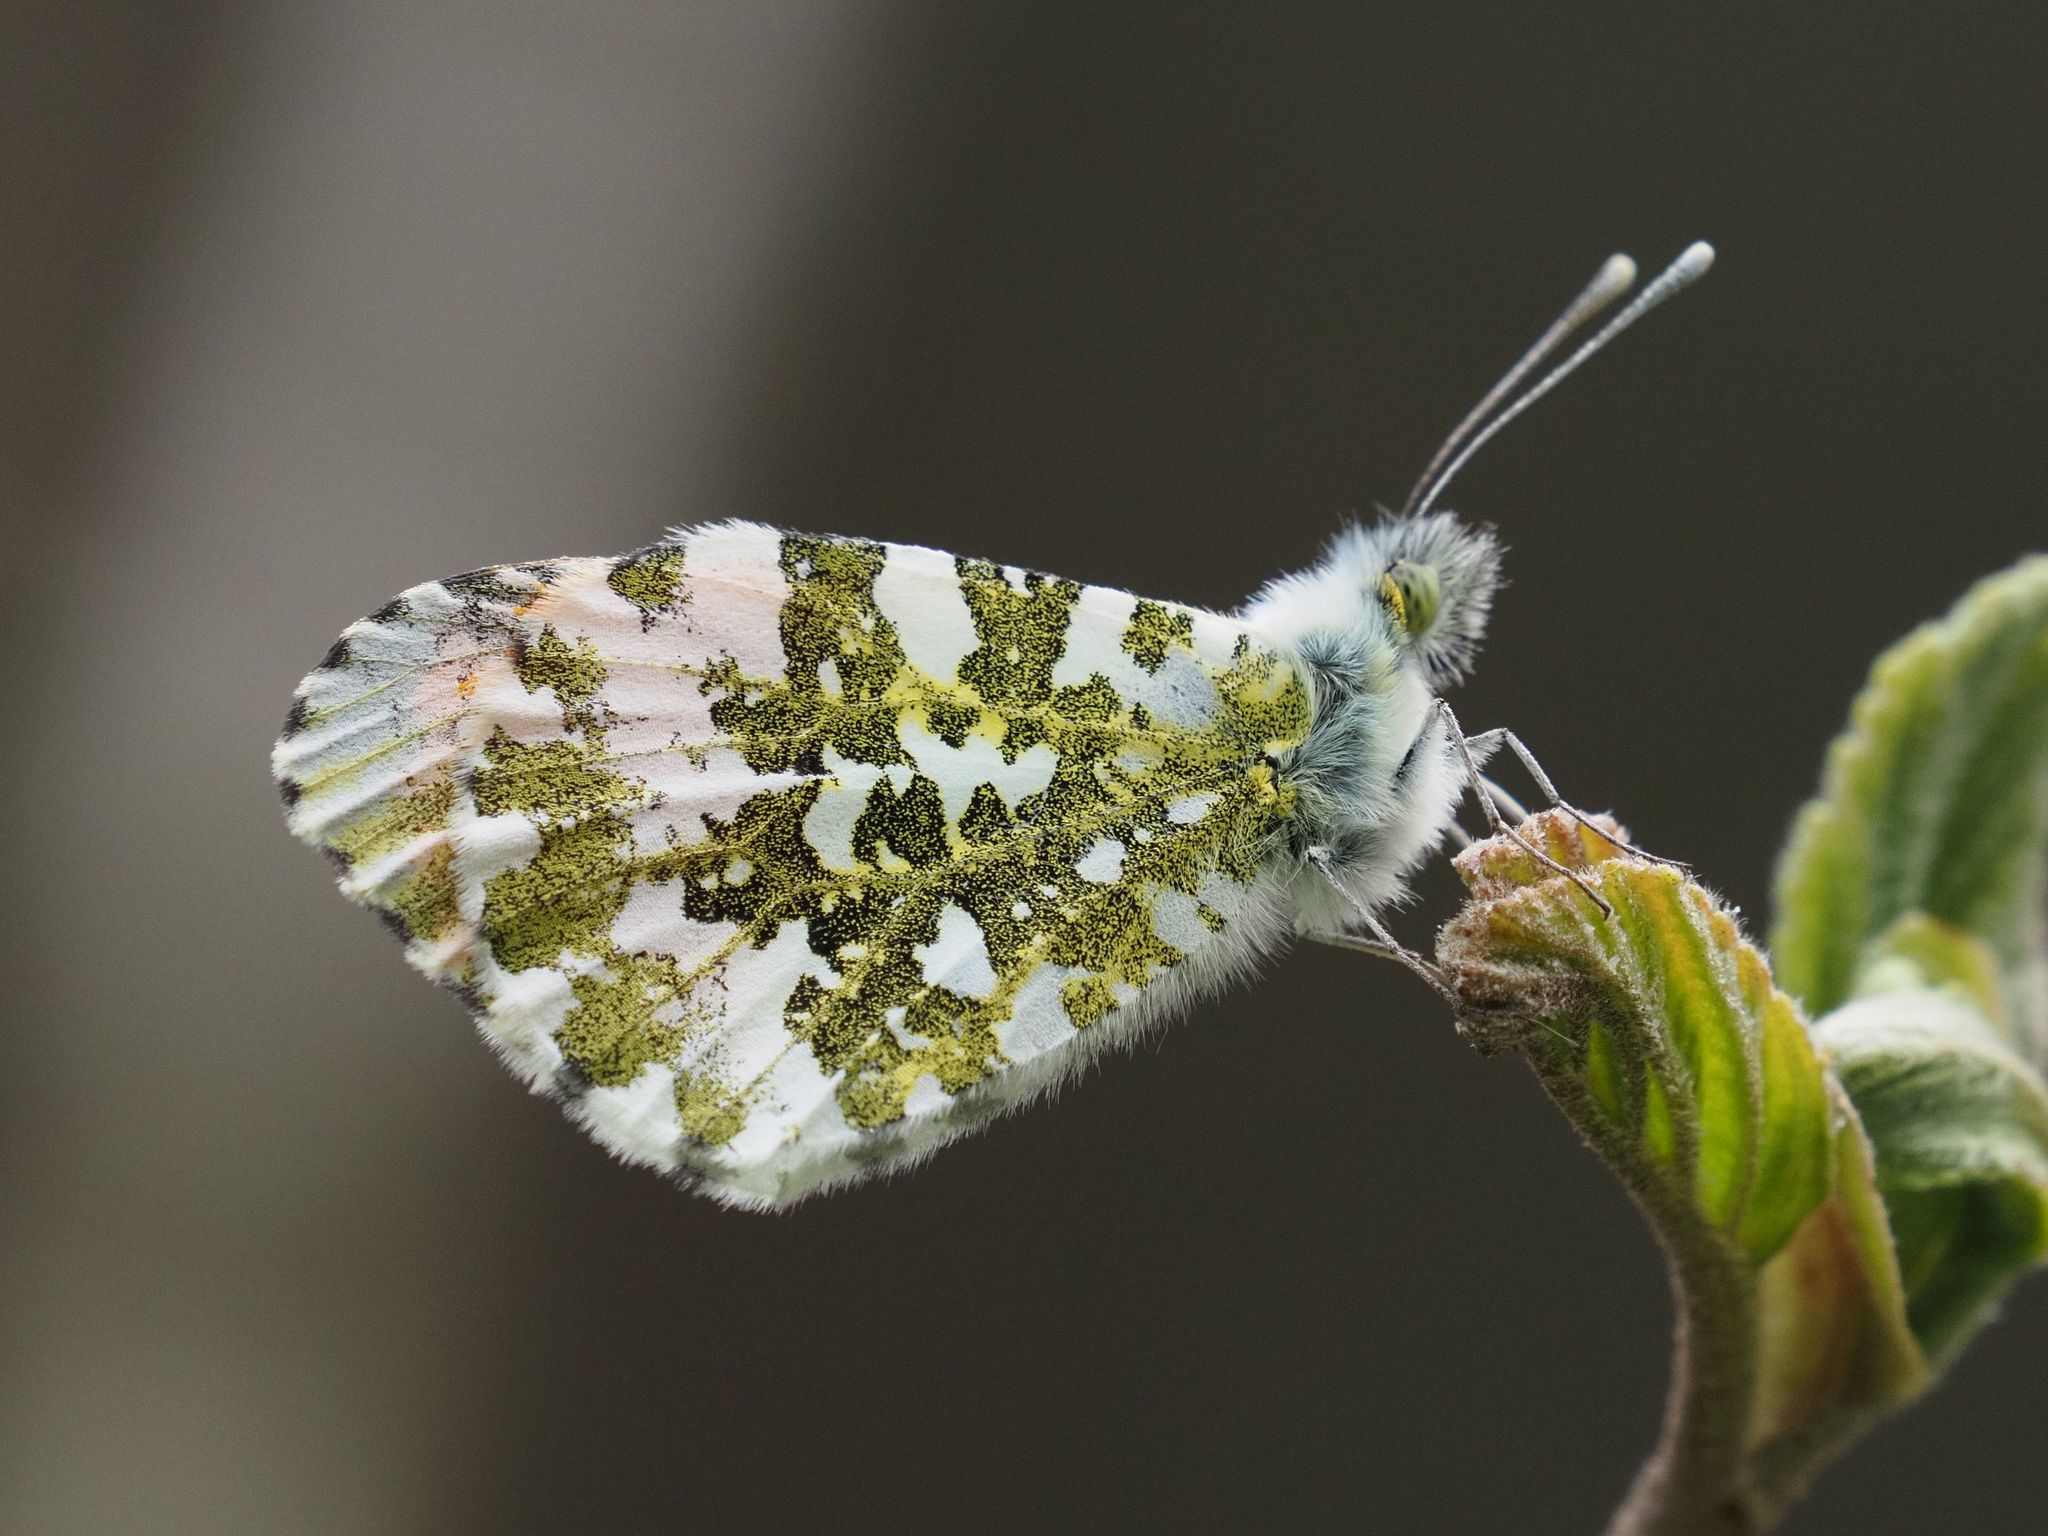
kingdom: Animalia
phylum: Arthropoda
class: Insecta
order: Lepidoptera
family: Pieridae
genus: Anthocharis
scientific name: Anthocharis cardamines
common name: Orange-tip
